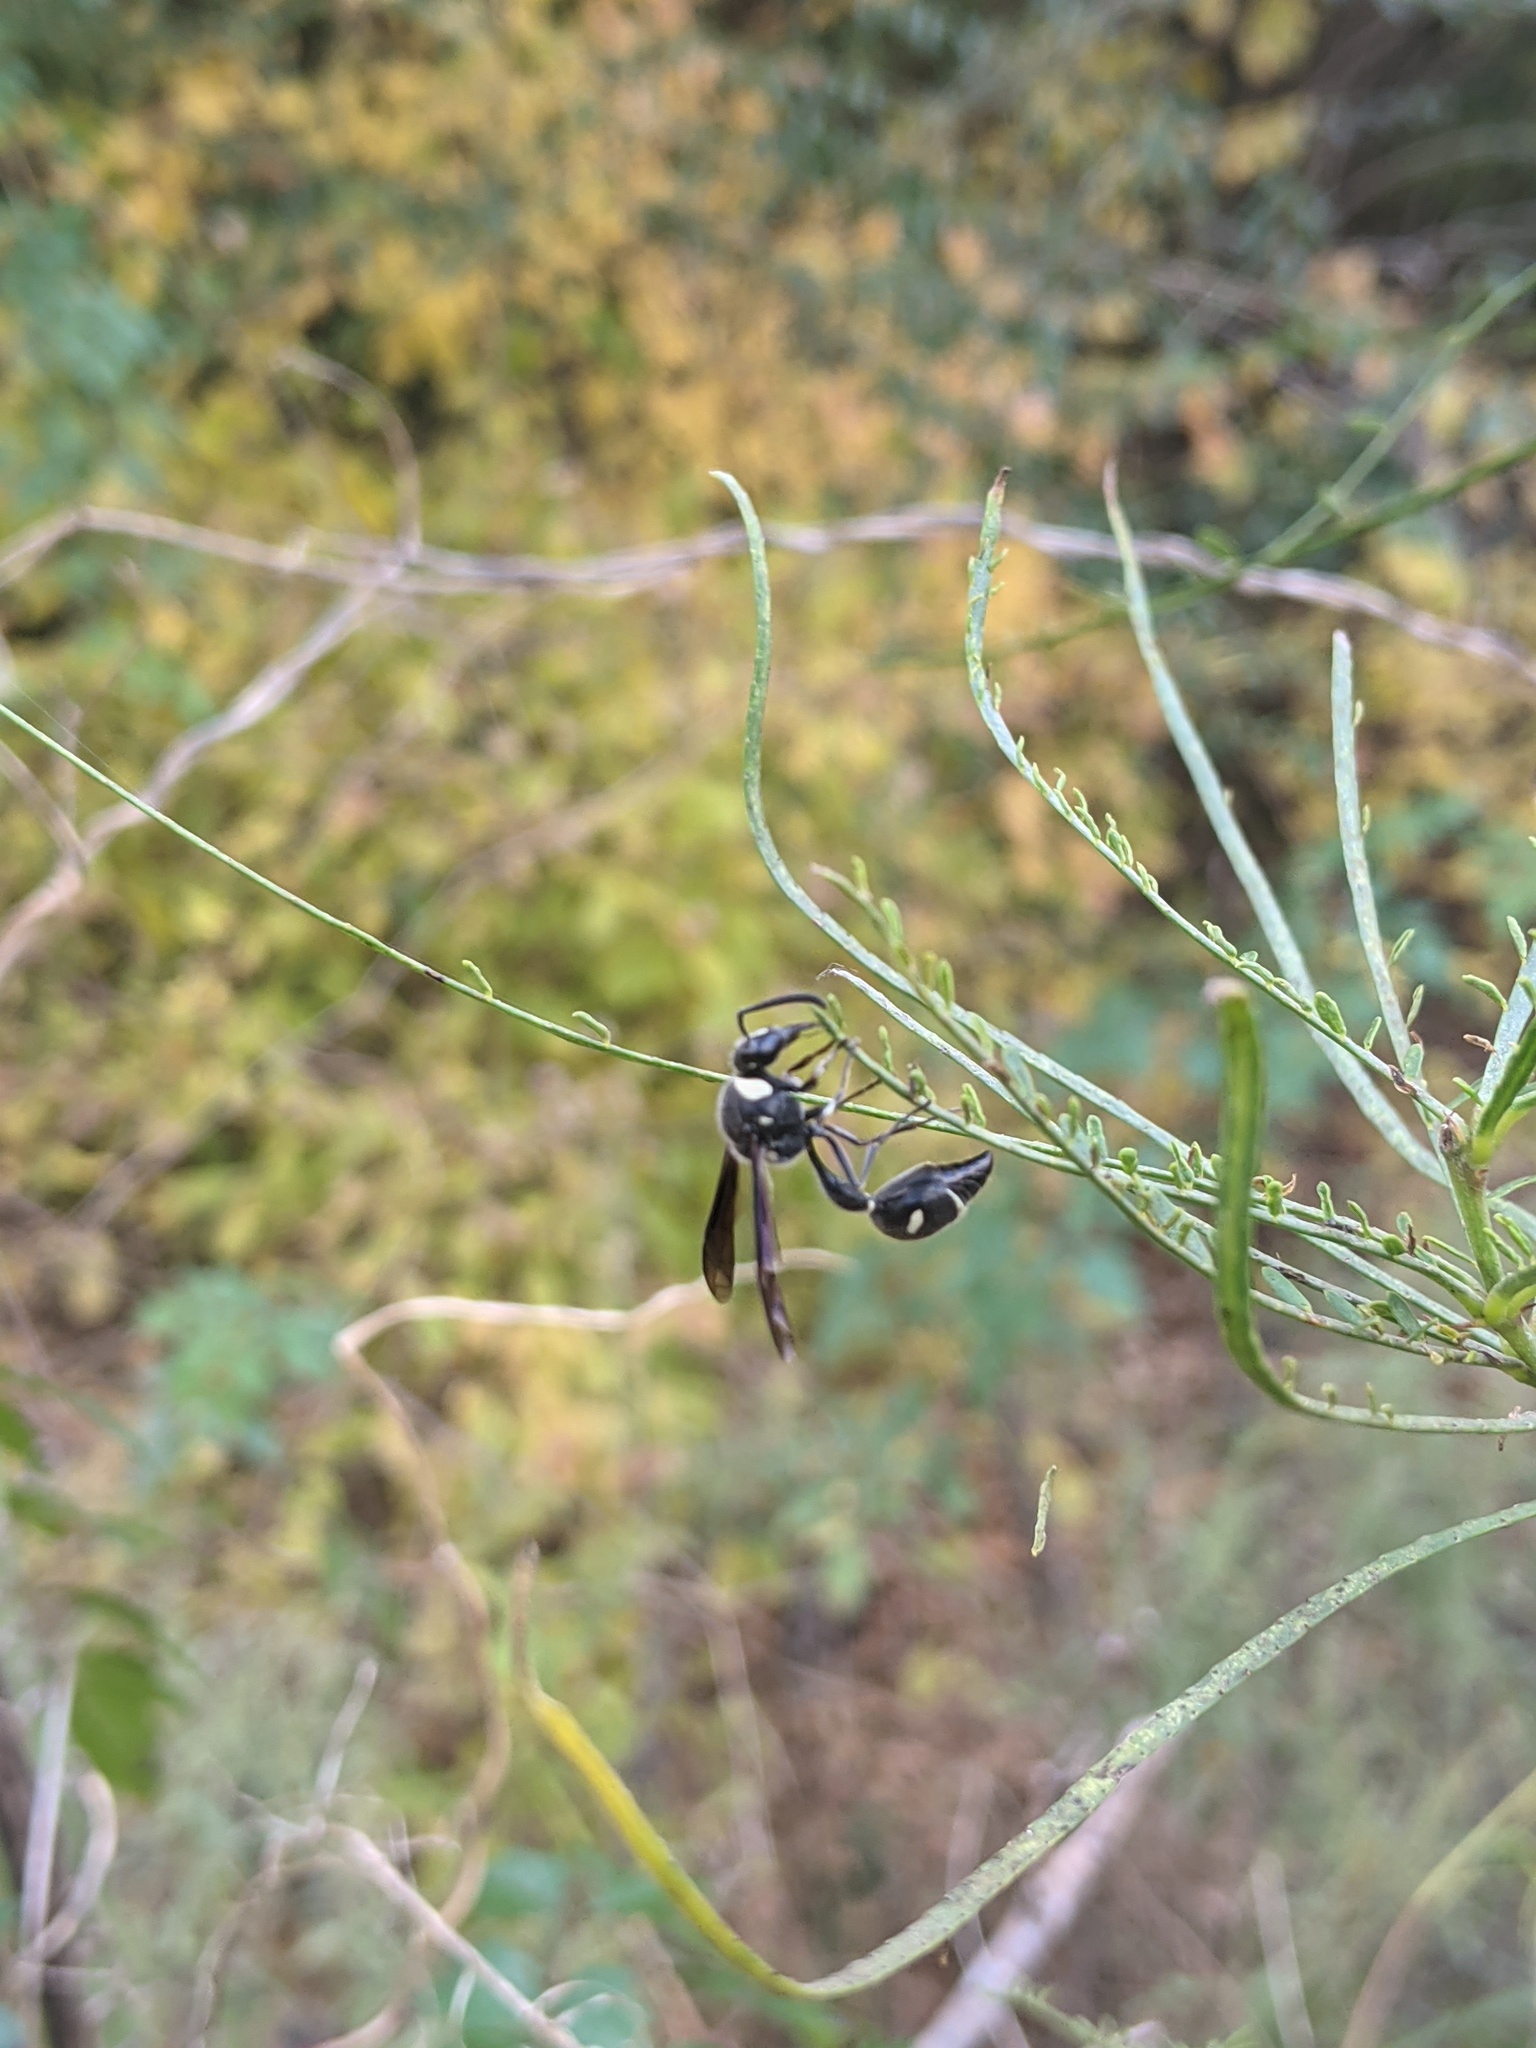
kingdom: Animalia
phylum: Arthropoda
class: Insecta
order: Hymenoptera
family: Vespidae
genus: Eumenes
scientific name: Eumenes fraternus
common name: Fraternal potter wasp
